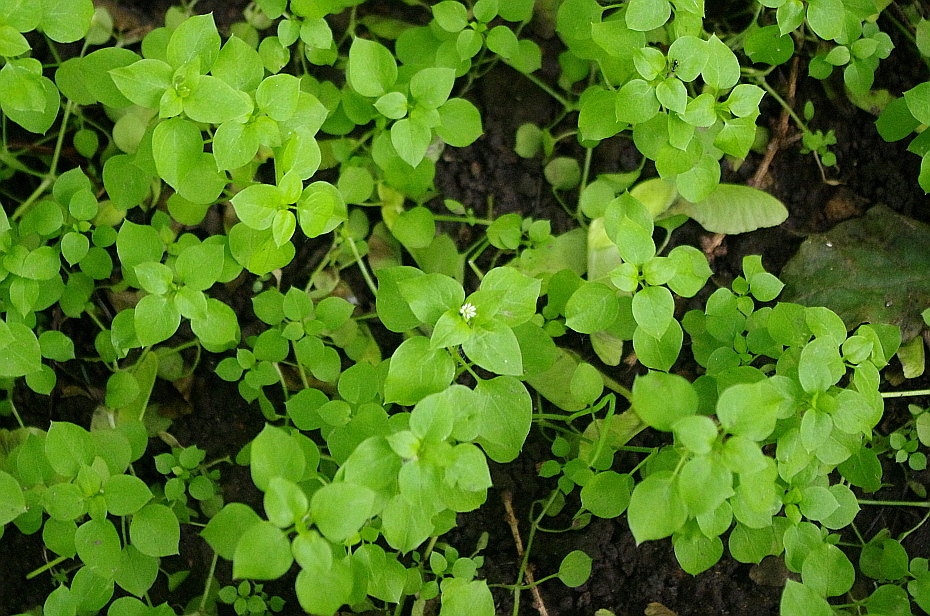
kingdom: Plantae
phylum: Tracheophyta
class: Magnoliopsida
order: Caryophyllales
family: Caryophyllaceae
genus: Stellaria
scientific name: Stellaria media
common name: Common chickweed
